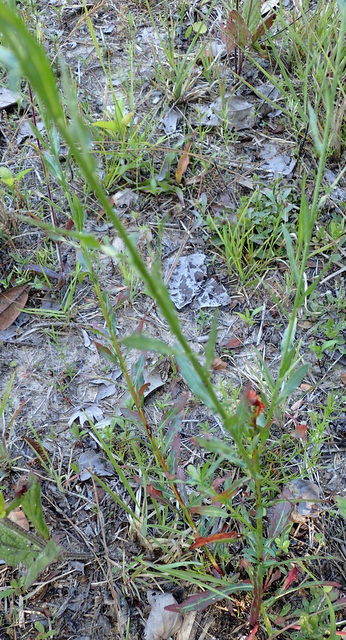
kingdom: Plantae
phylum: Tracheophyta
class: Magnoliopsida
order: Myrtales
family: Onagraceae
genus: Oenothera
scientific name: Oenothera simulans
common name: Southern beeblossom
